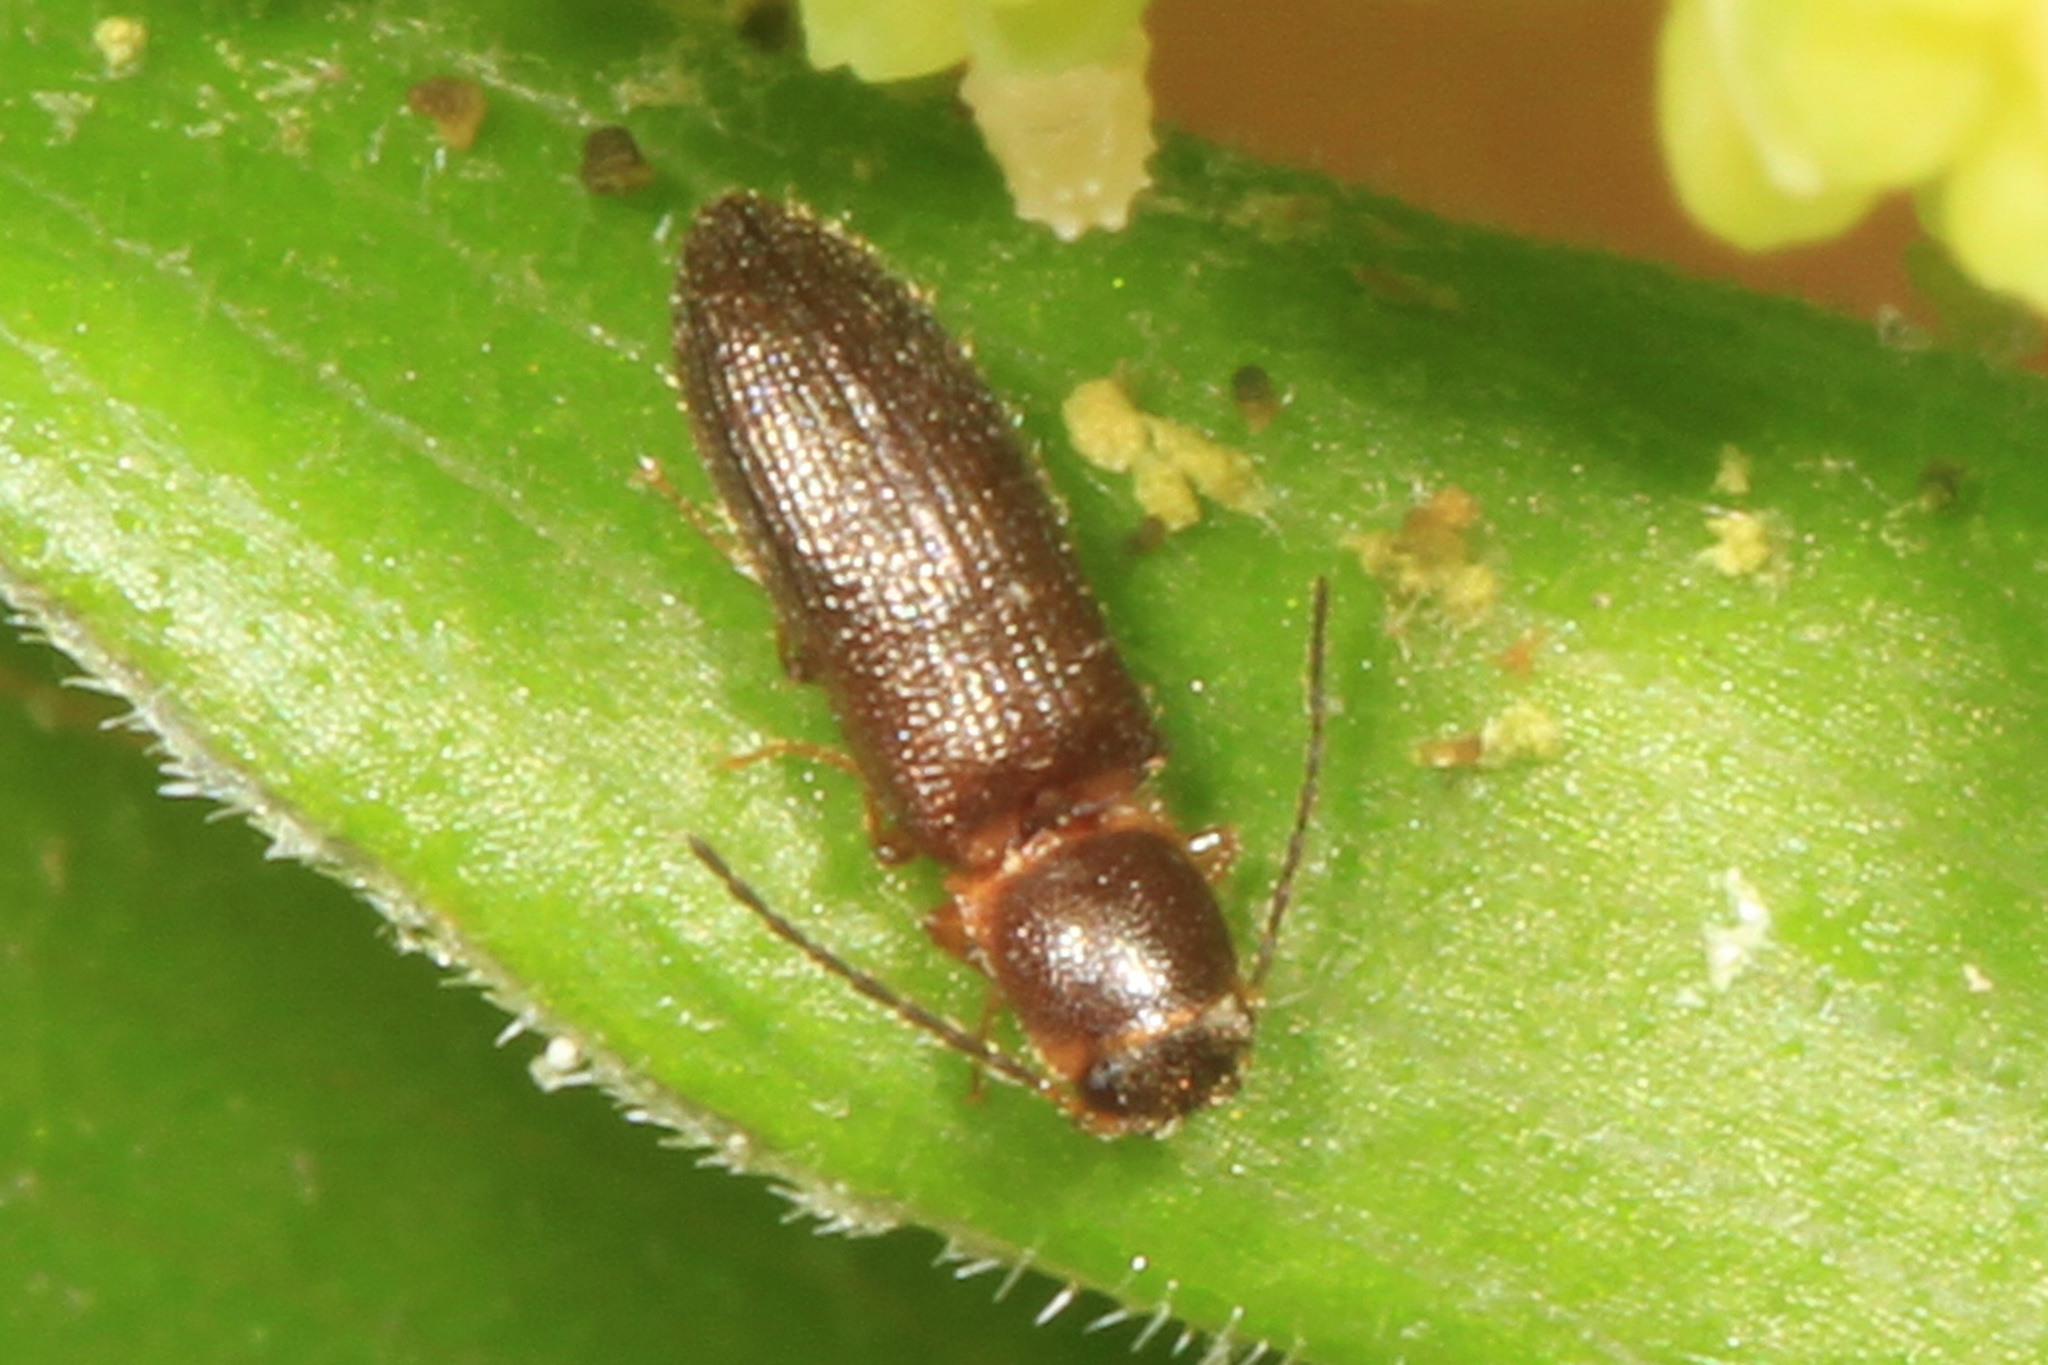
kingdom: Animalia
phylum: Arthropoda
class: Insecta
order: Coleoptera
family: Elateridae
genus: Tetralimonius
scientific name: Tetralimonius
